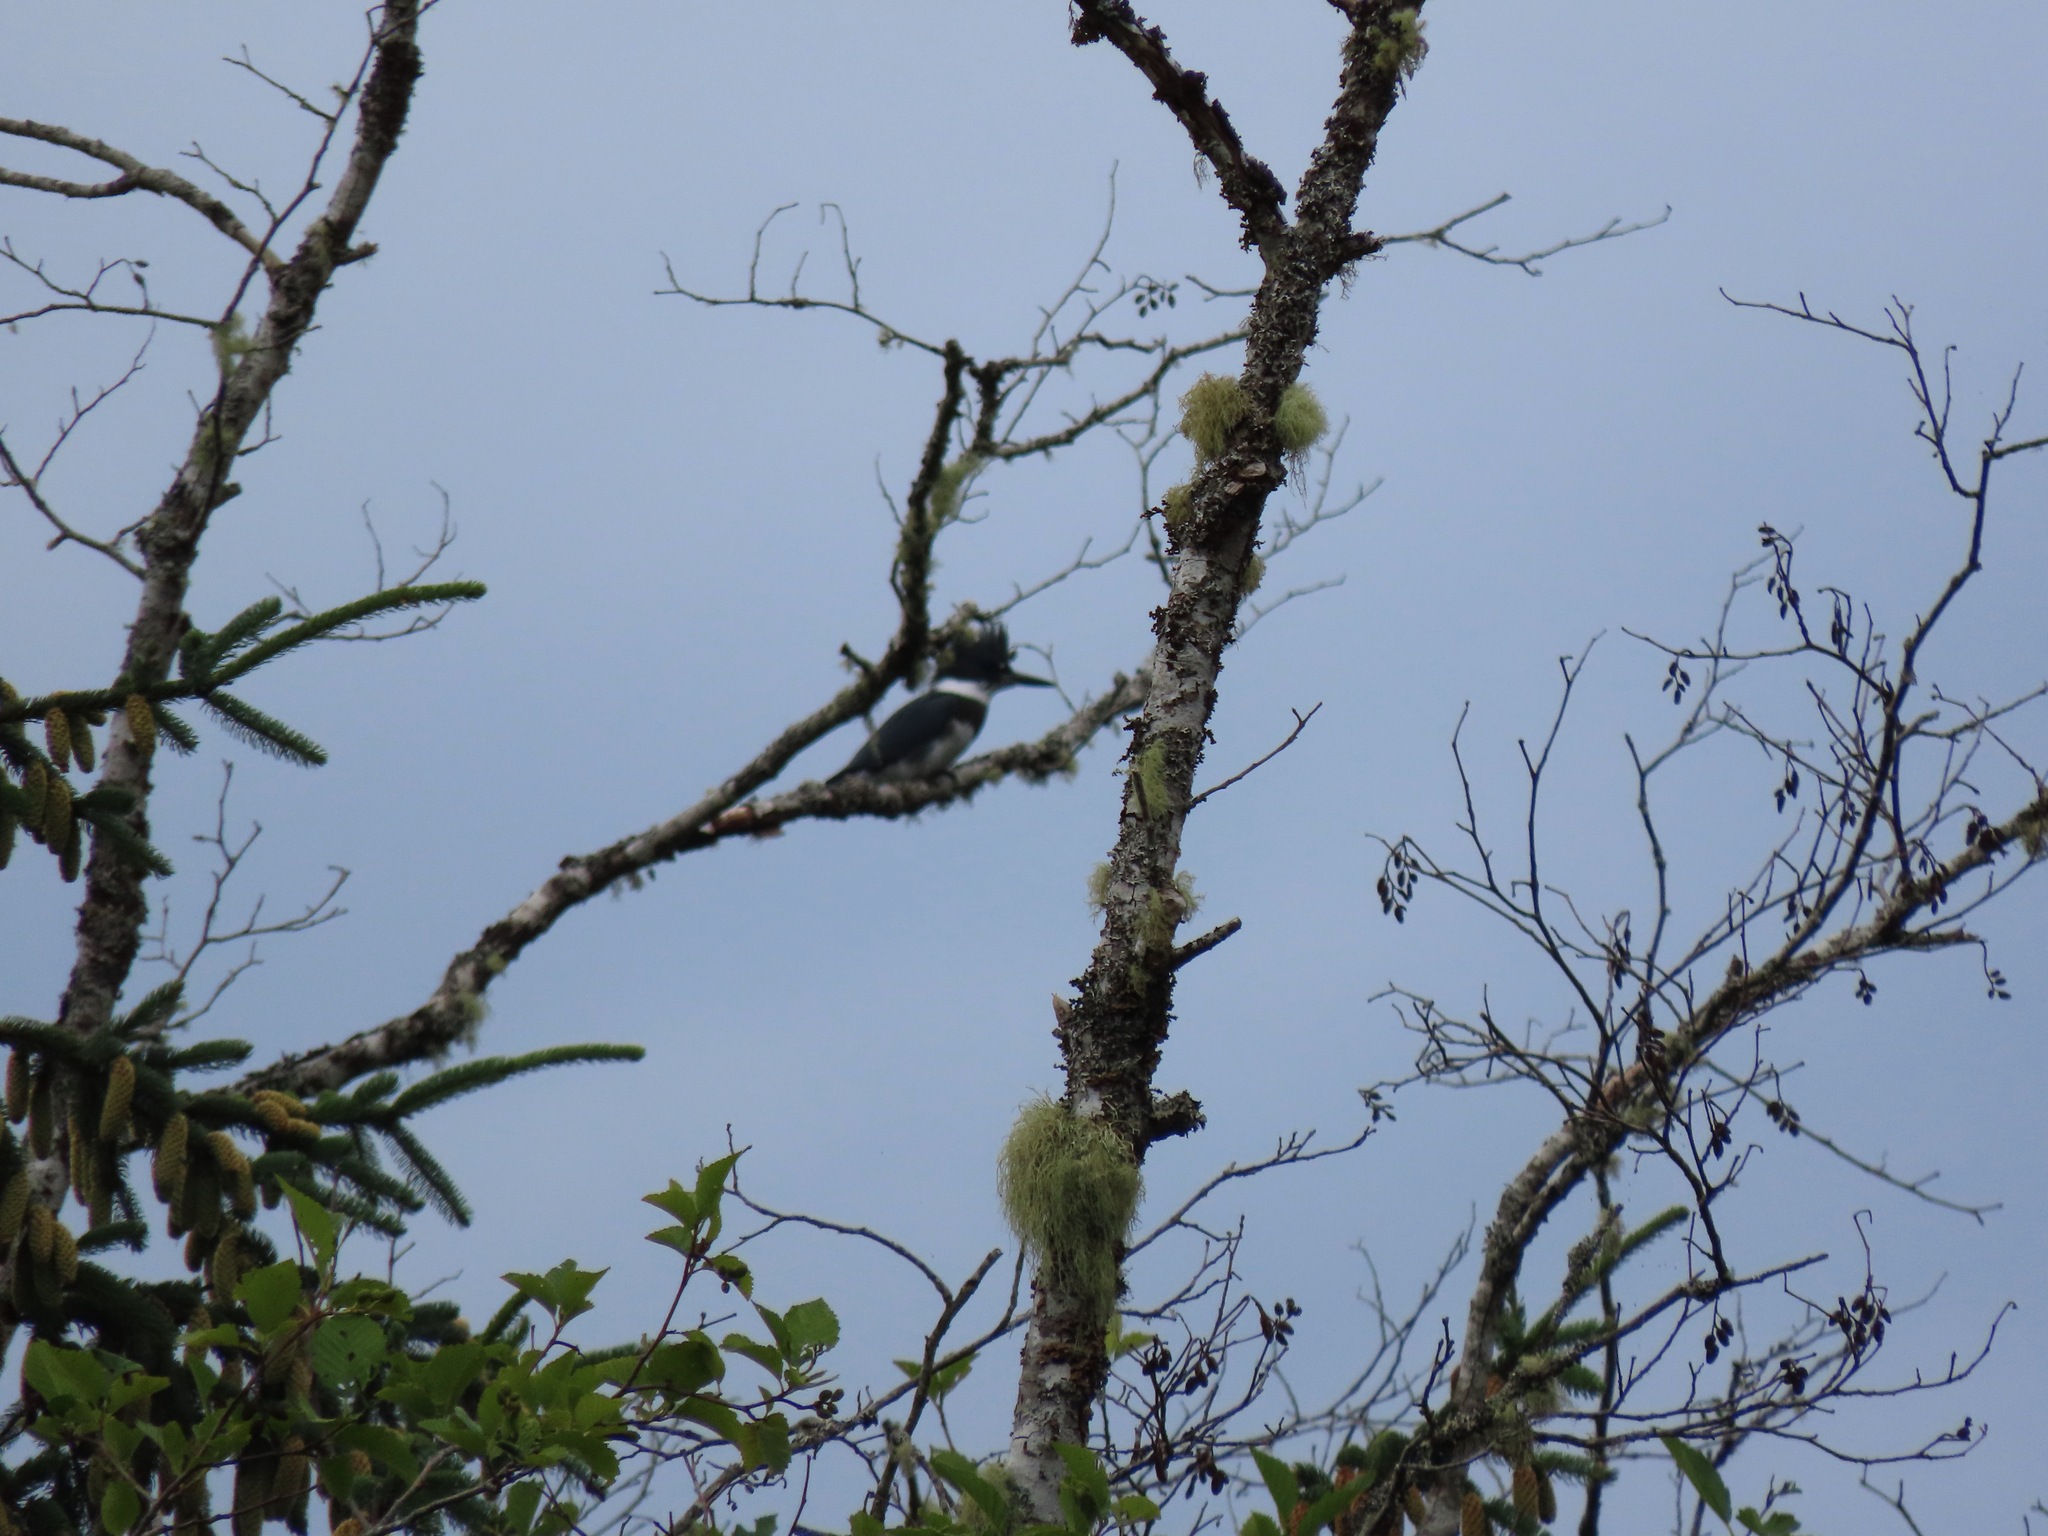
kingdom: Animalia
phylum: Chordata
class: Aves
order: Coraciiformes
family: Alcedinidae
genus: Megaceryle
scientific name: Megaceryle alcyon
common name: Belted kingfisher
